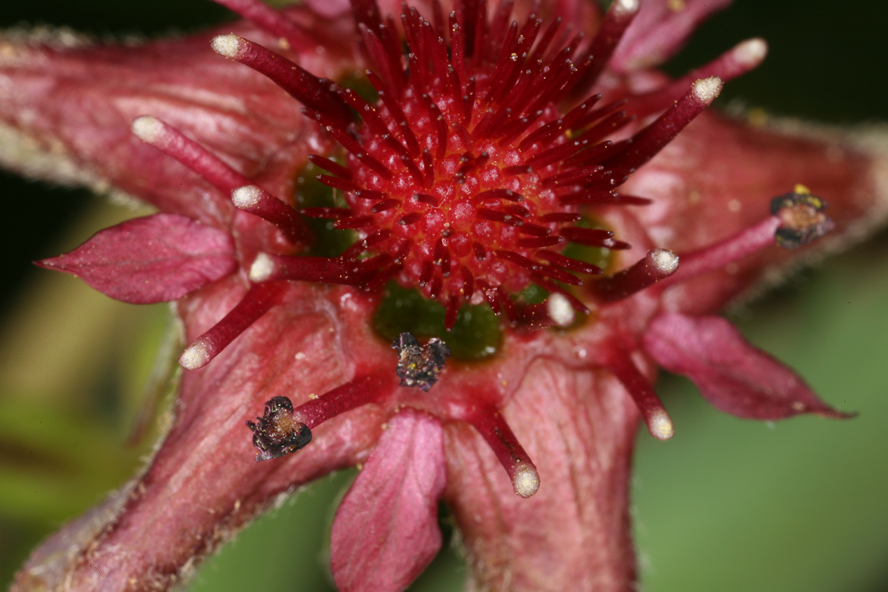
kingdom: Plantae
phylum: Tracheophyta
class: Magnoliopsida
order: Rosales
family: Rosaceae
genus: Comarum
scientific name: Comarum palustre
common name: Marsh cinquefoil
